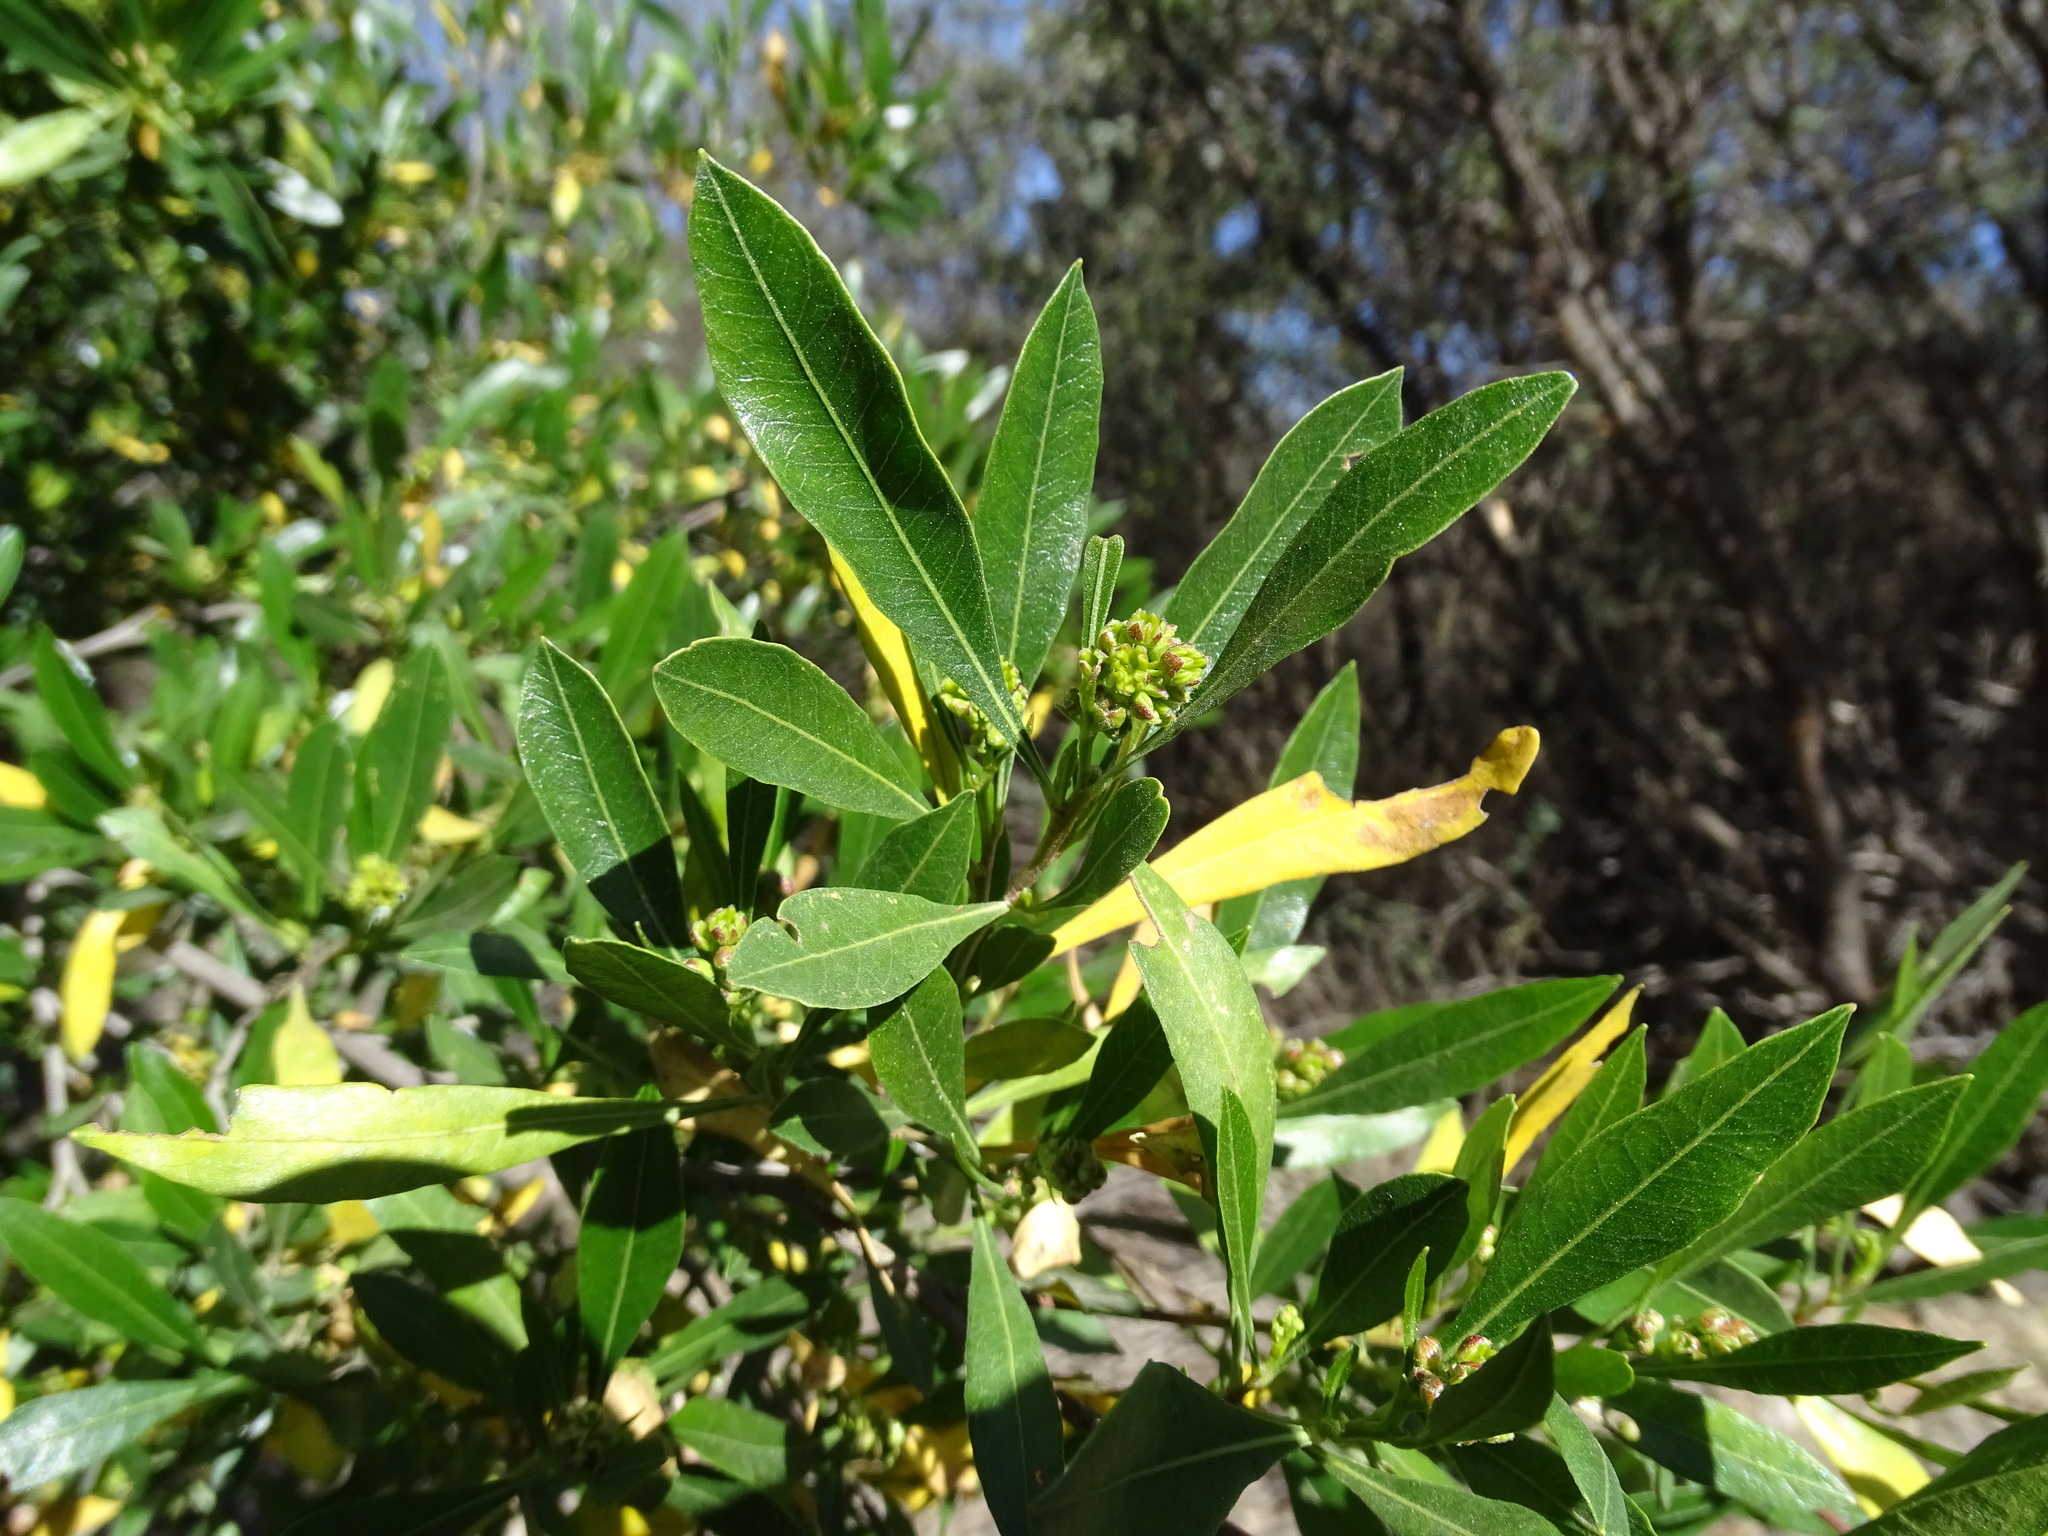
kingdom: Plantae
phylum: Tracheophyta
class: Magnoliopsida
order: Sapindales
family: Sapindaceae
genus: Dodonaea
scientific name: Dodonaea viscosa
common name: Hopbush
